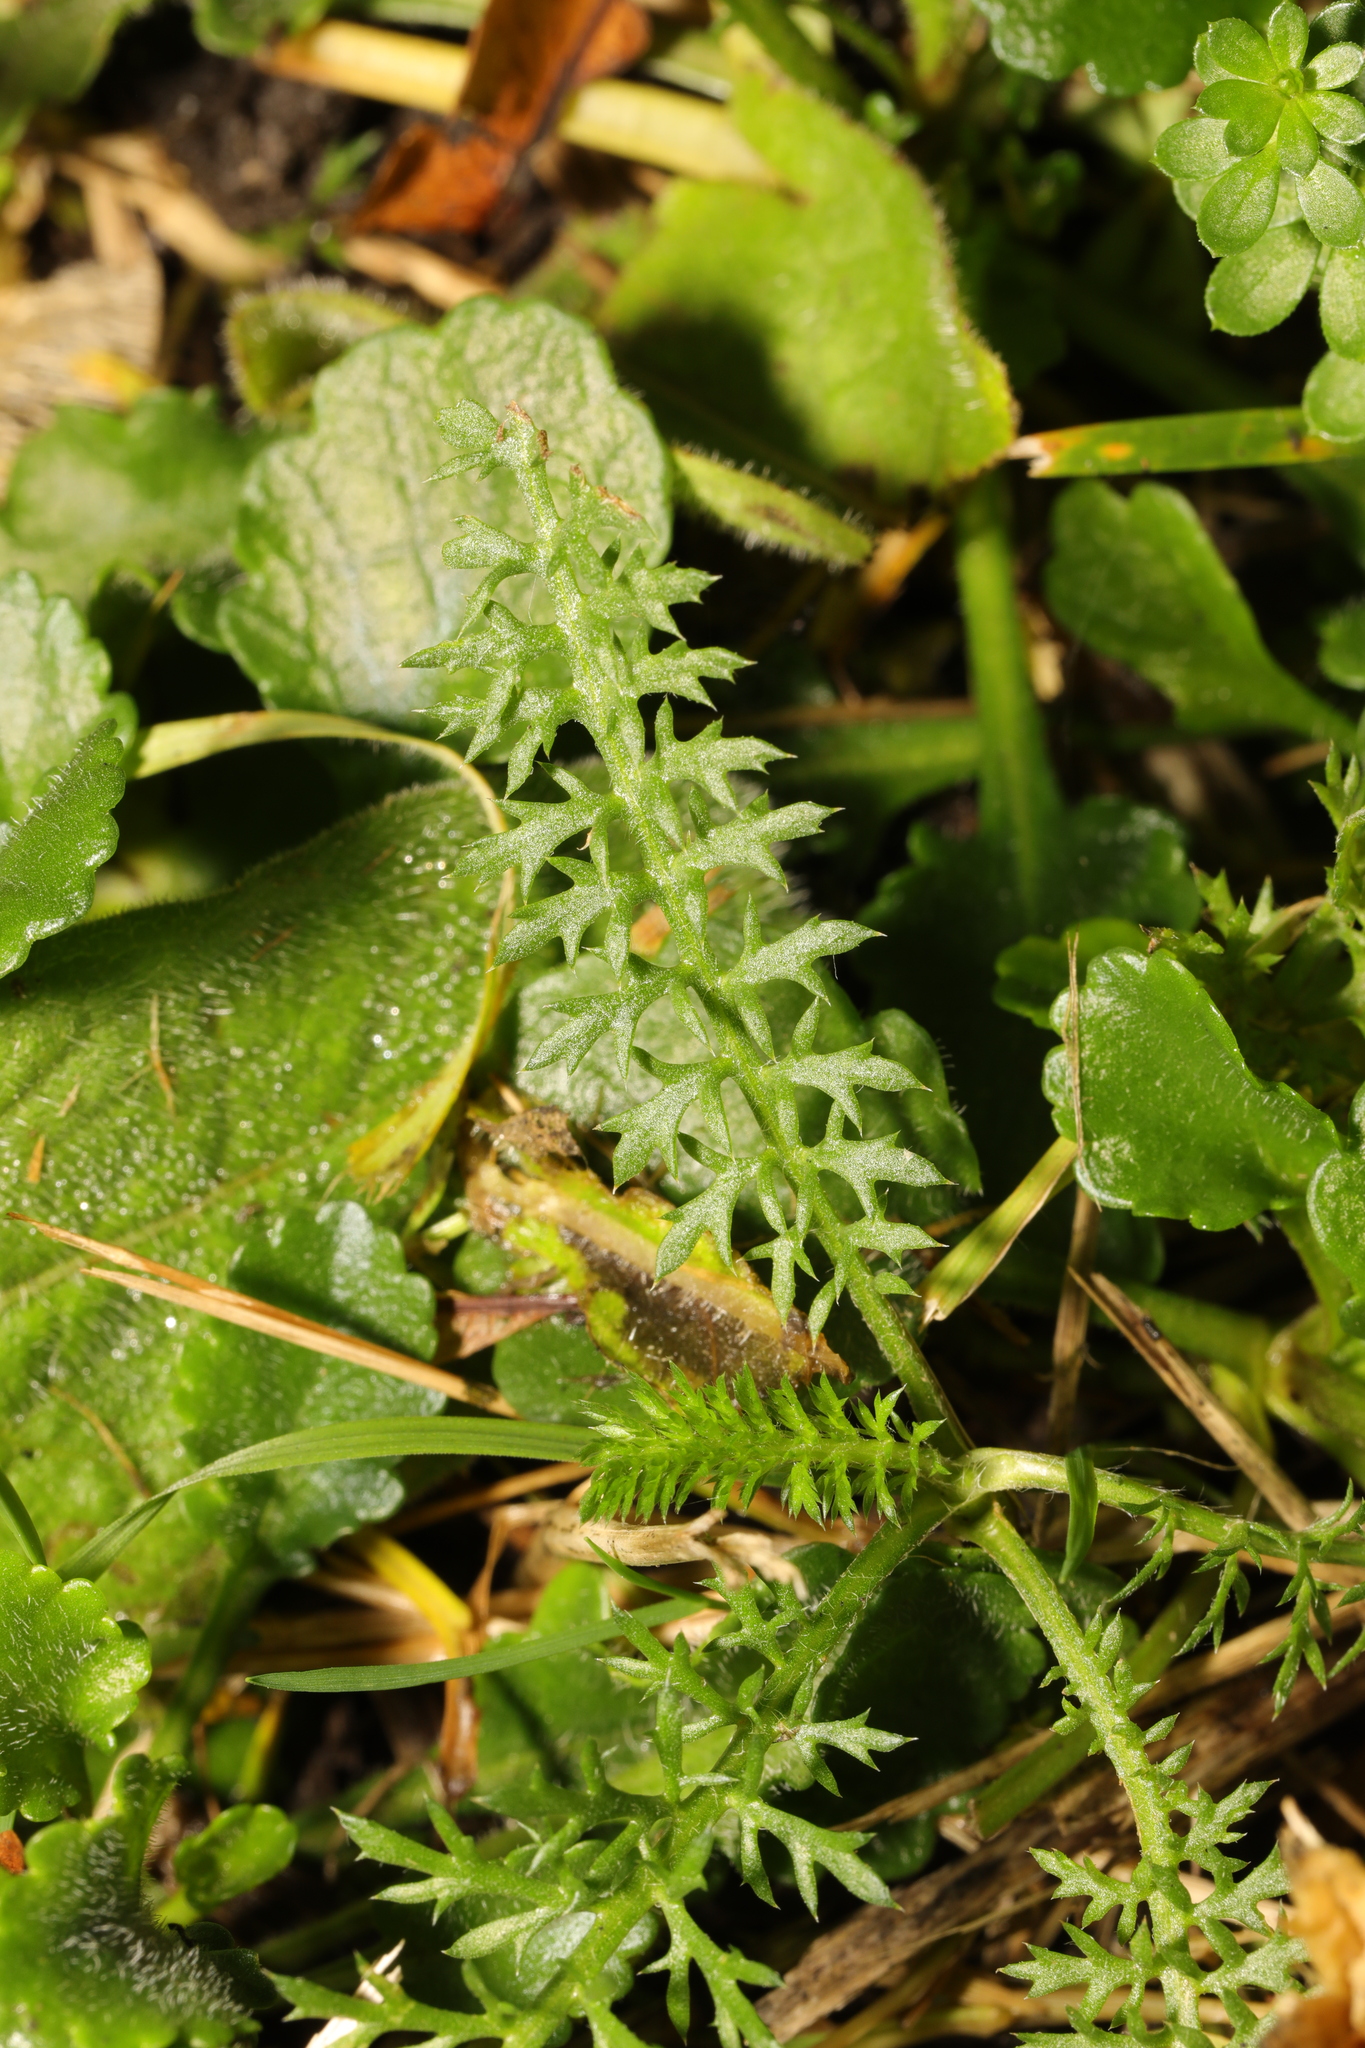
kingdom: Plantae
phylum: Tracheophyta
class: Magnoliopsida
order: Asterales
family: Asteraceae
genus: Achillea
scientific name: Achillea millefolium
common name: Yarrow
